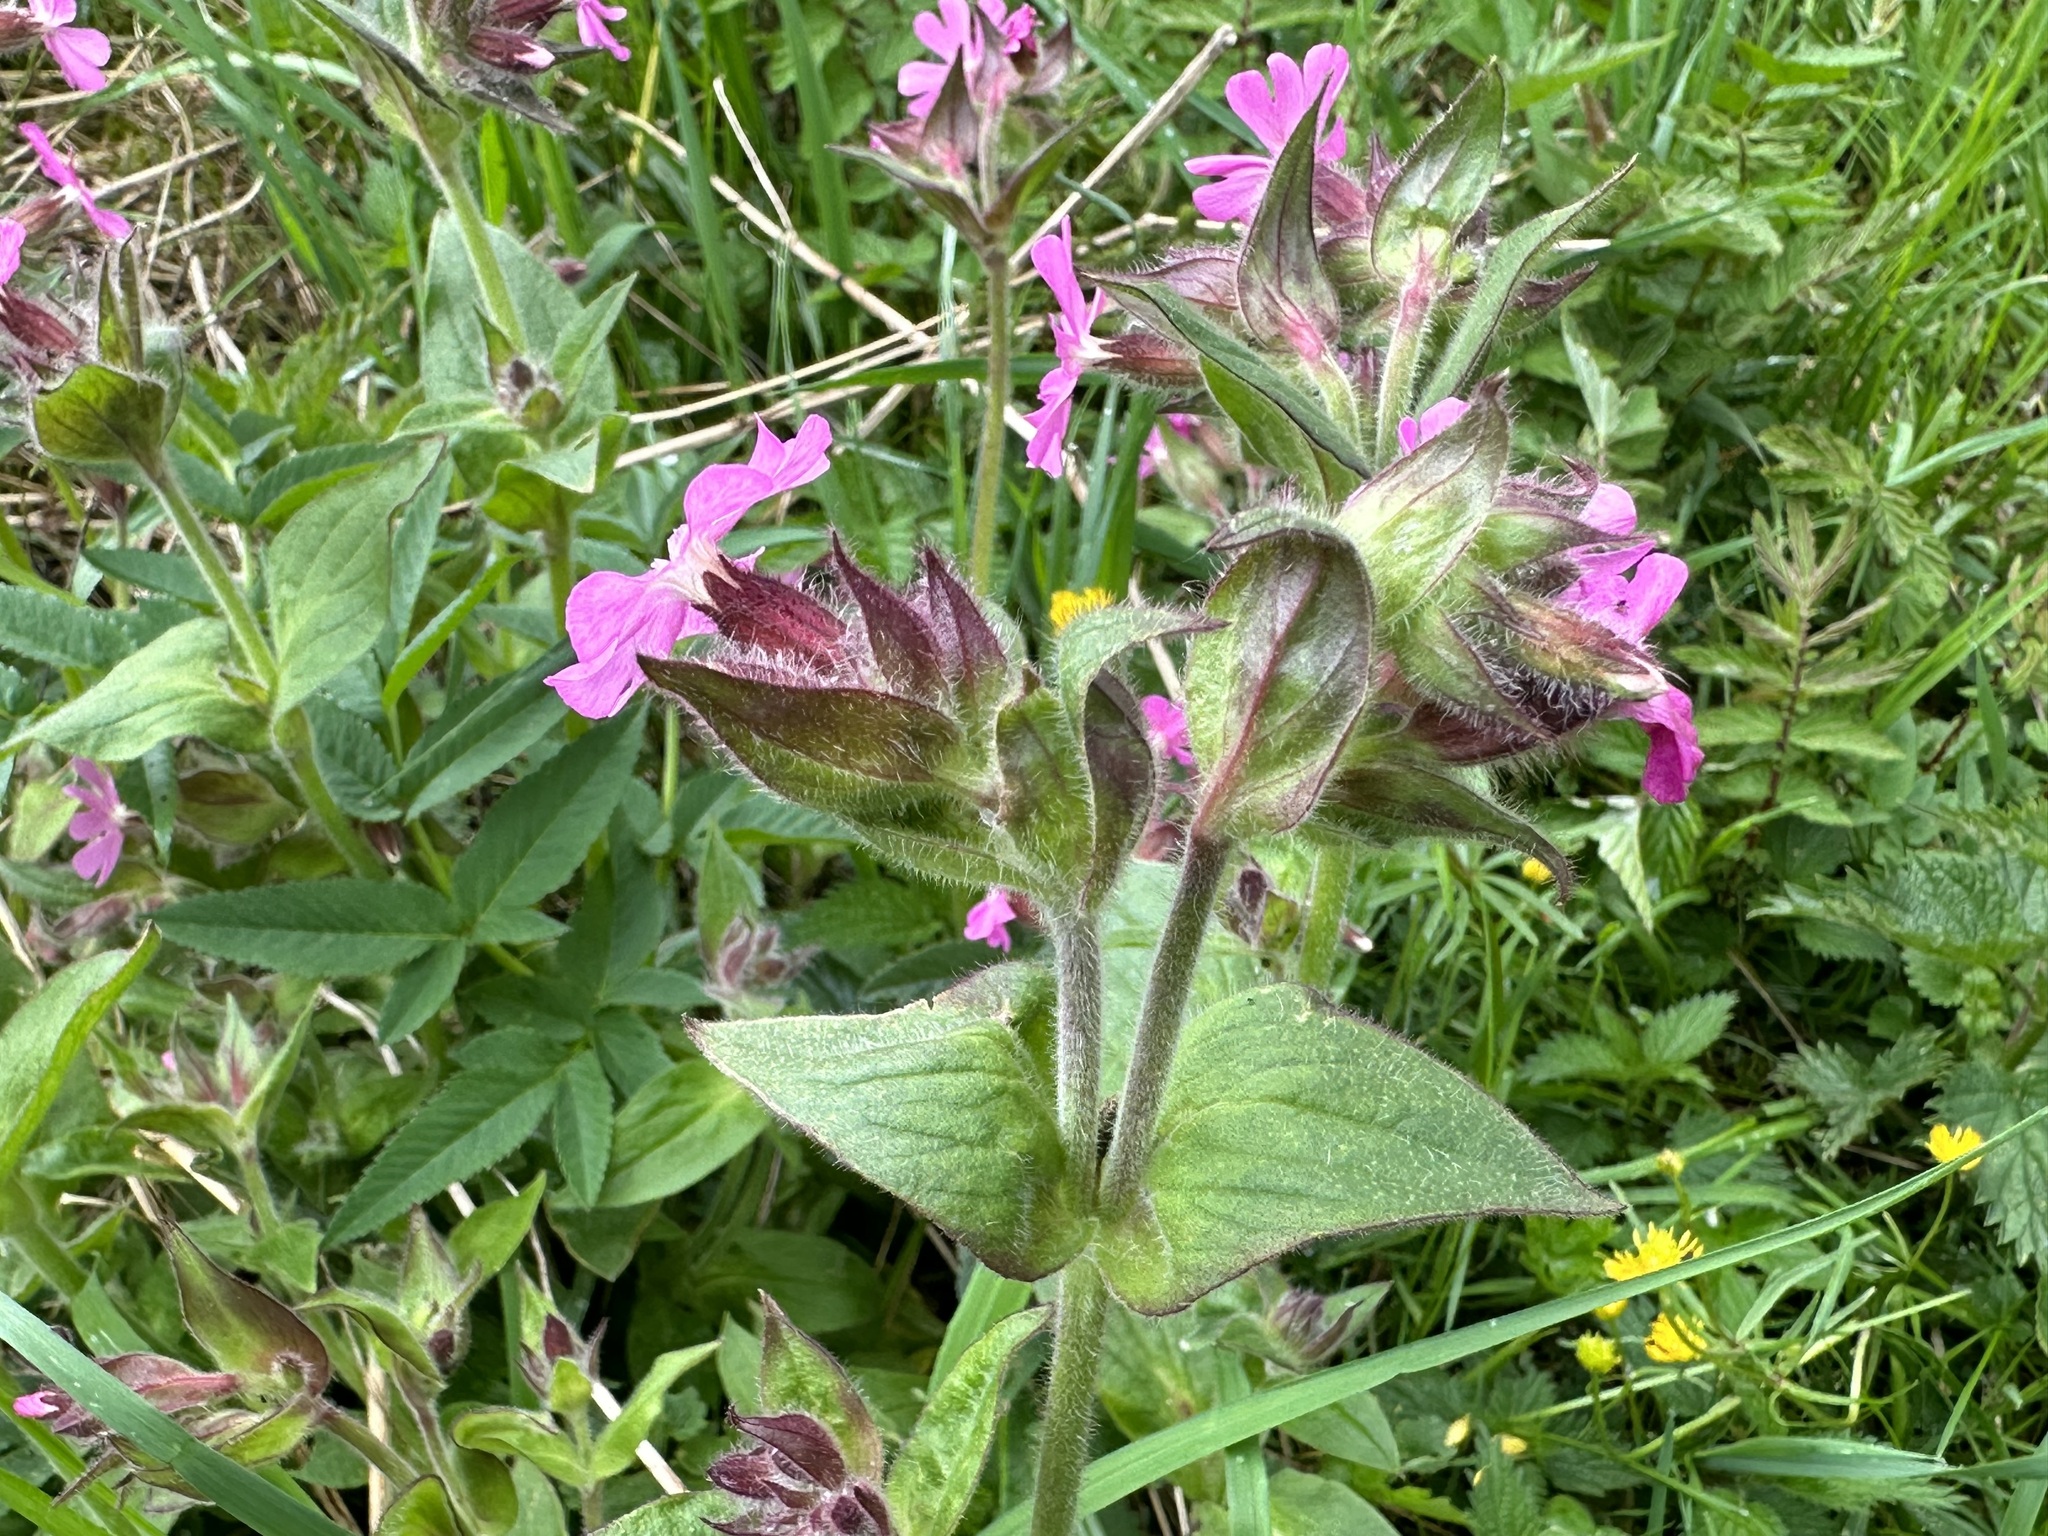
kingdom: Plantae
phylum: Tracheophyta
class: Magnoliopsida
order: Caryophyllales
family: Caryophyllaceae
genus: Silene
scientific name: Silene dioica
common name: Red campion
